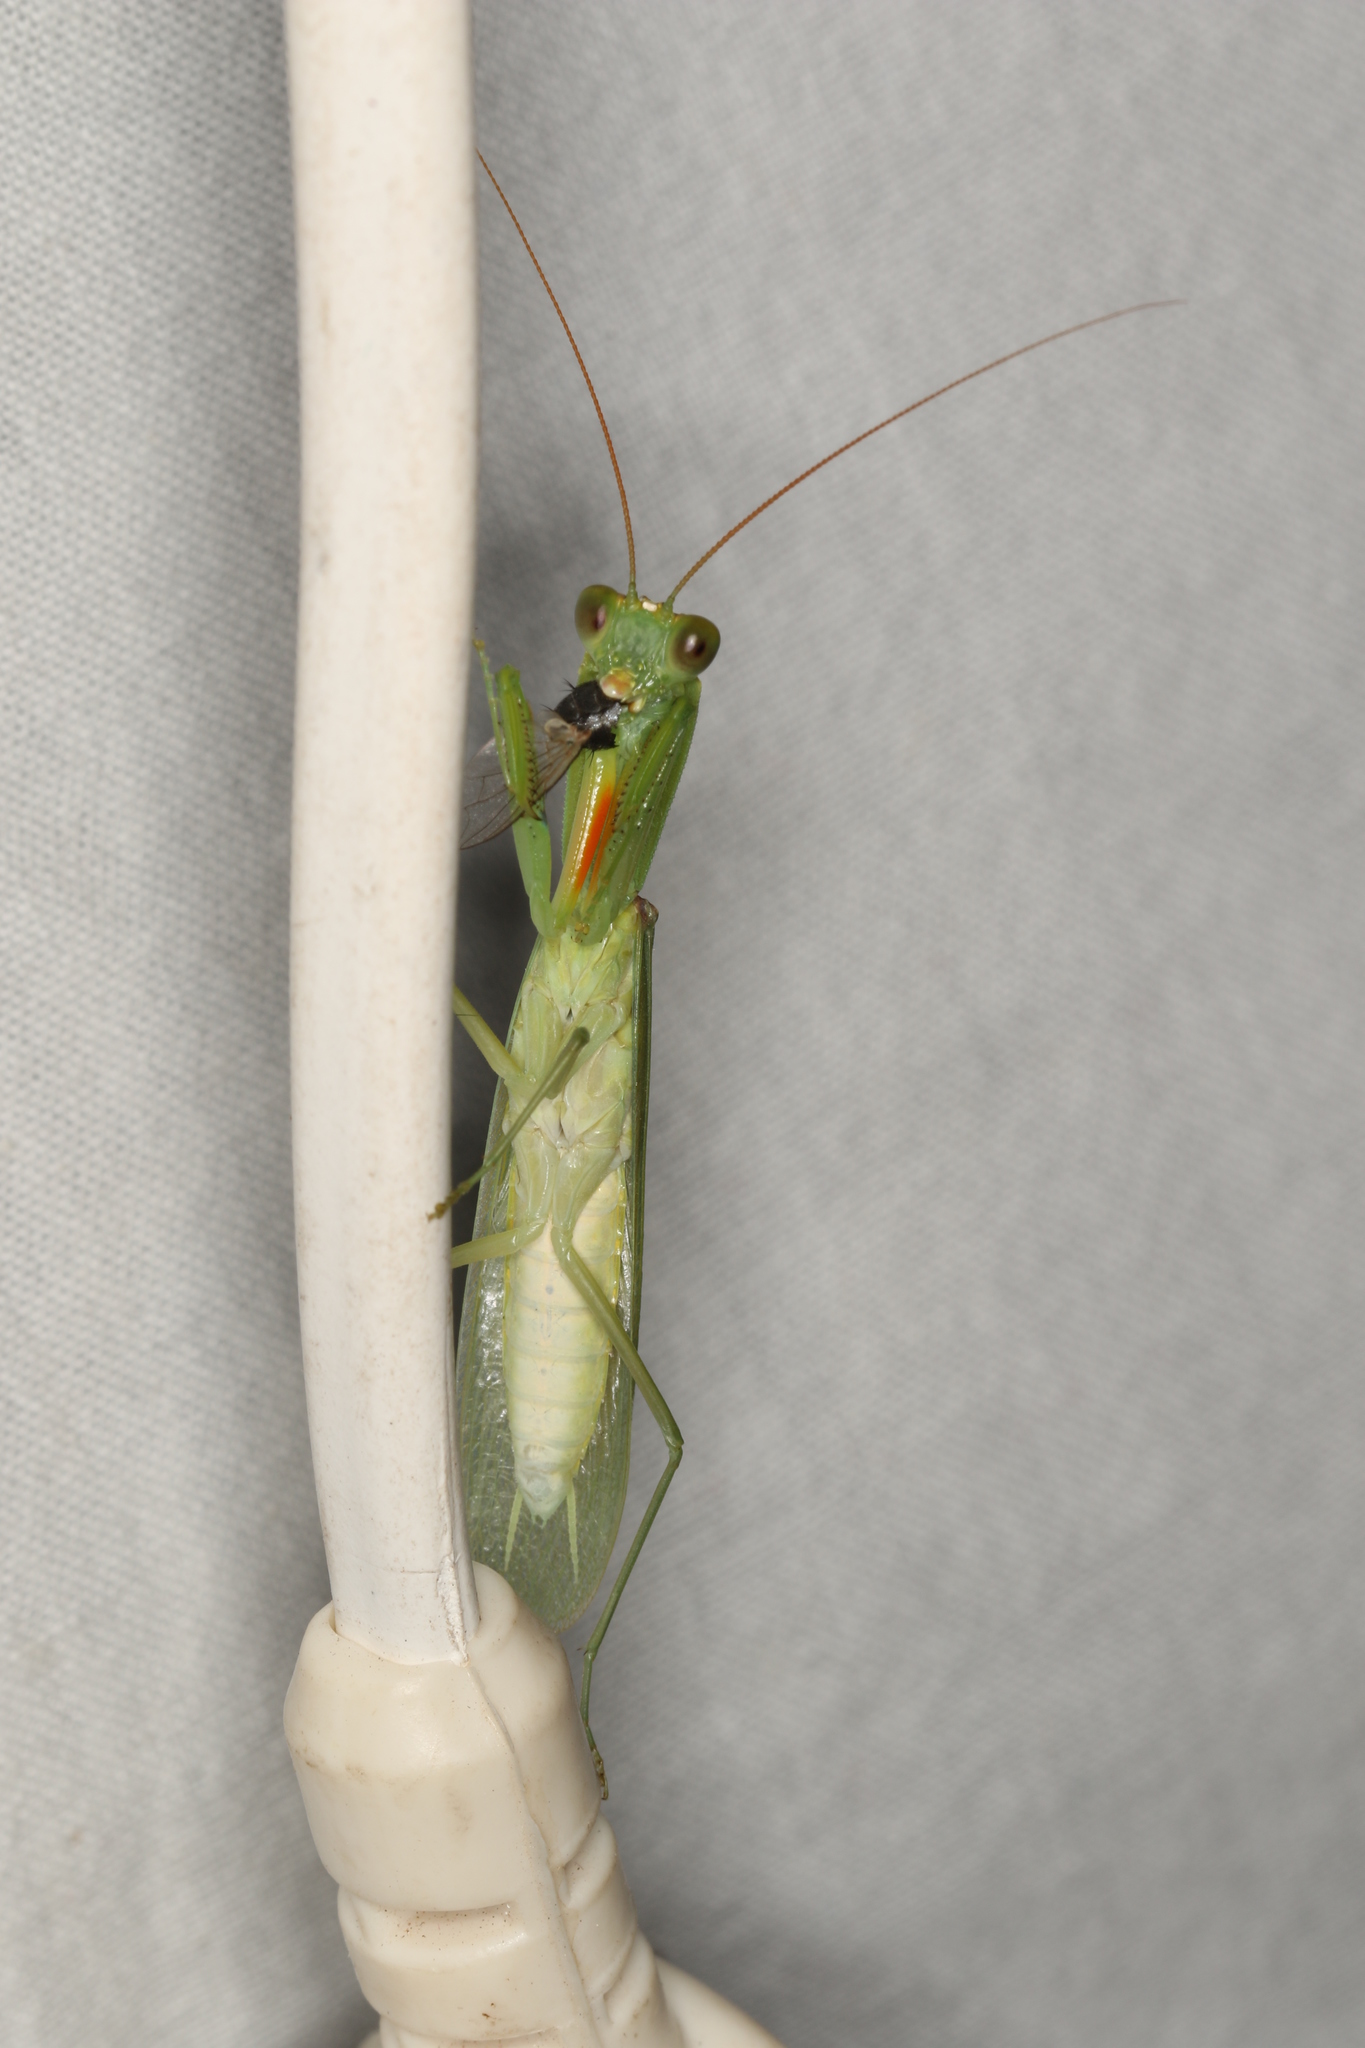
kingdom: Animalia
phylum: Arthropoda
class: Insecta
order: Mantodea
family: Mantidae
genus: Orthodera
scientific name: Orthodera ministralis
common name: Mantis
